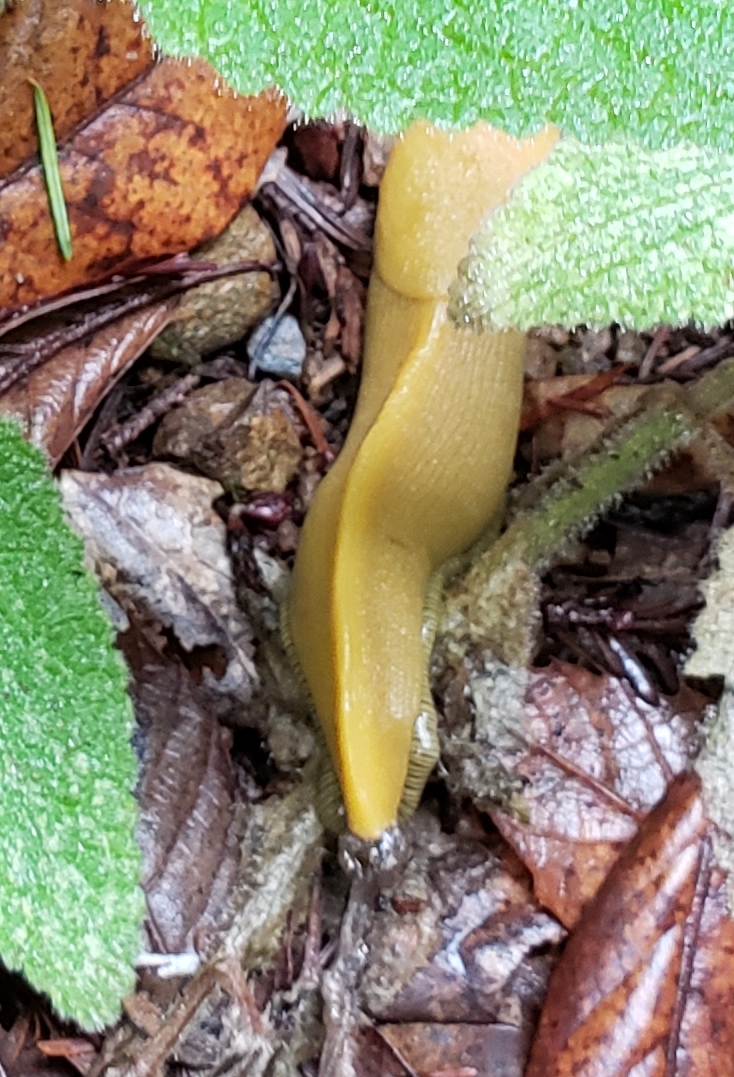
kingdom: Animalia
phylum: Mollusca
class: Gastropoda
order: Stylommatophora
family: Ariolimacidae
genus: Ariolimax
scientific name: Ariolimax buttoni
